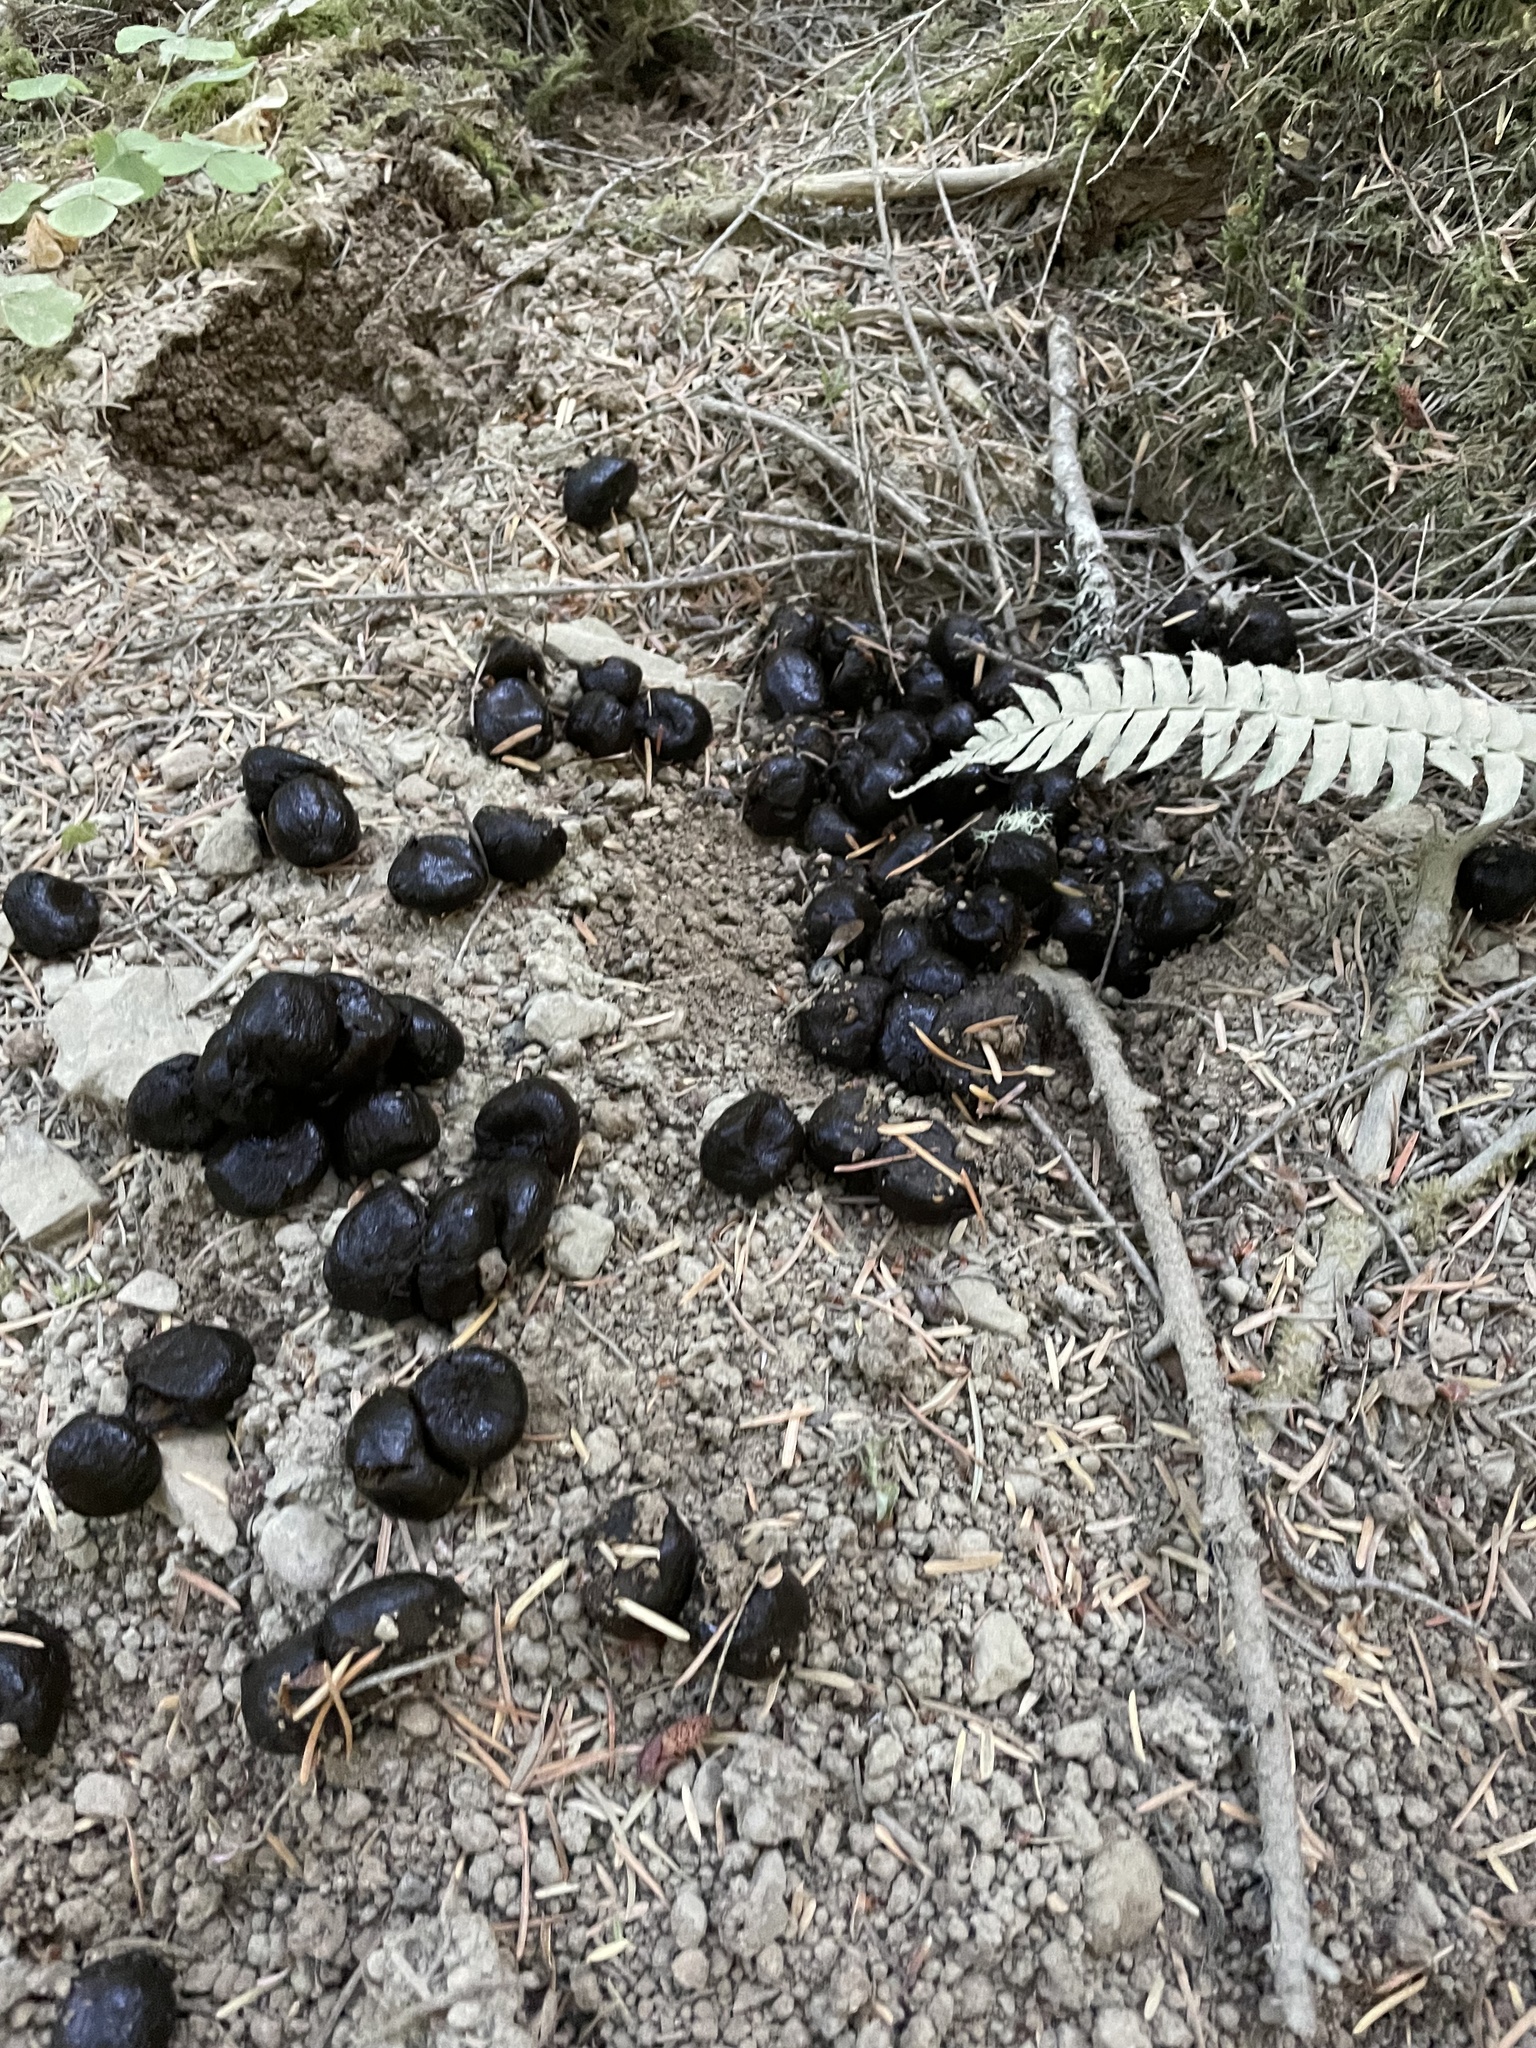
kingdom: Animalia
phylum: Chordata
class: Mammalia
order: Artiodactyla
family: Cervidae
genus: Cervus
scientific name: Cervus elaphus
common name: Red deer
